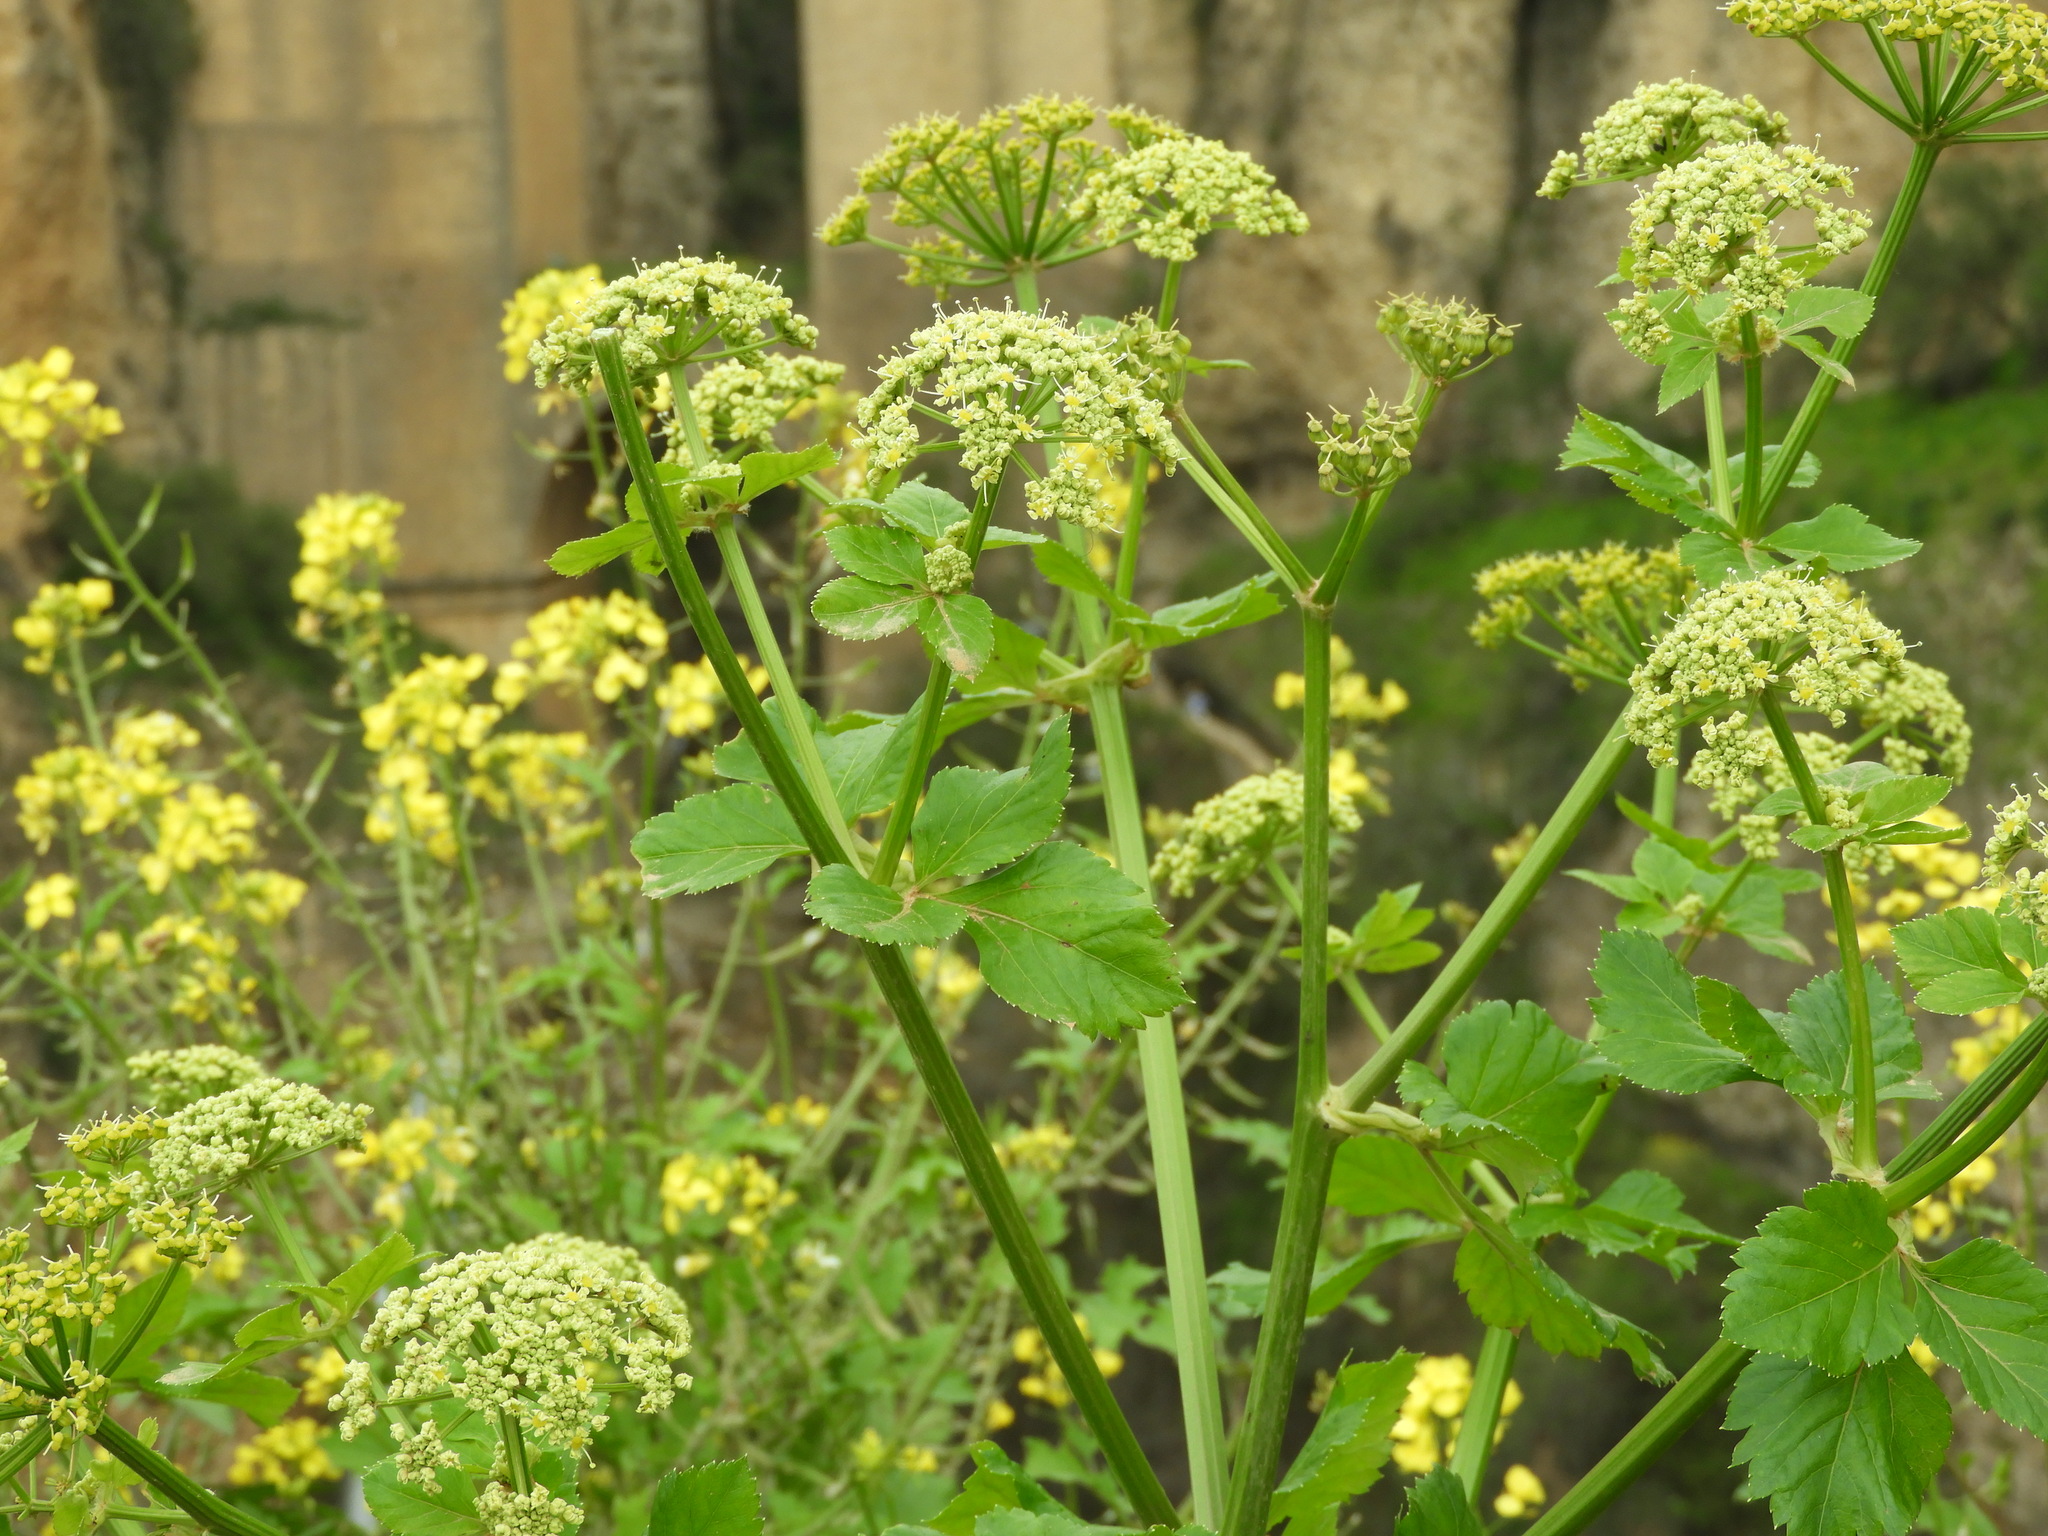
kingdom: Plantae
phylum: Tracheophyta
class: Magnoliopsida
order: Apiales
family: Apiaceae
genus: Smyrnium
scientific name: Smyrnium olusatrum
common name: Alexanders
